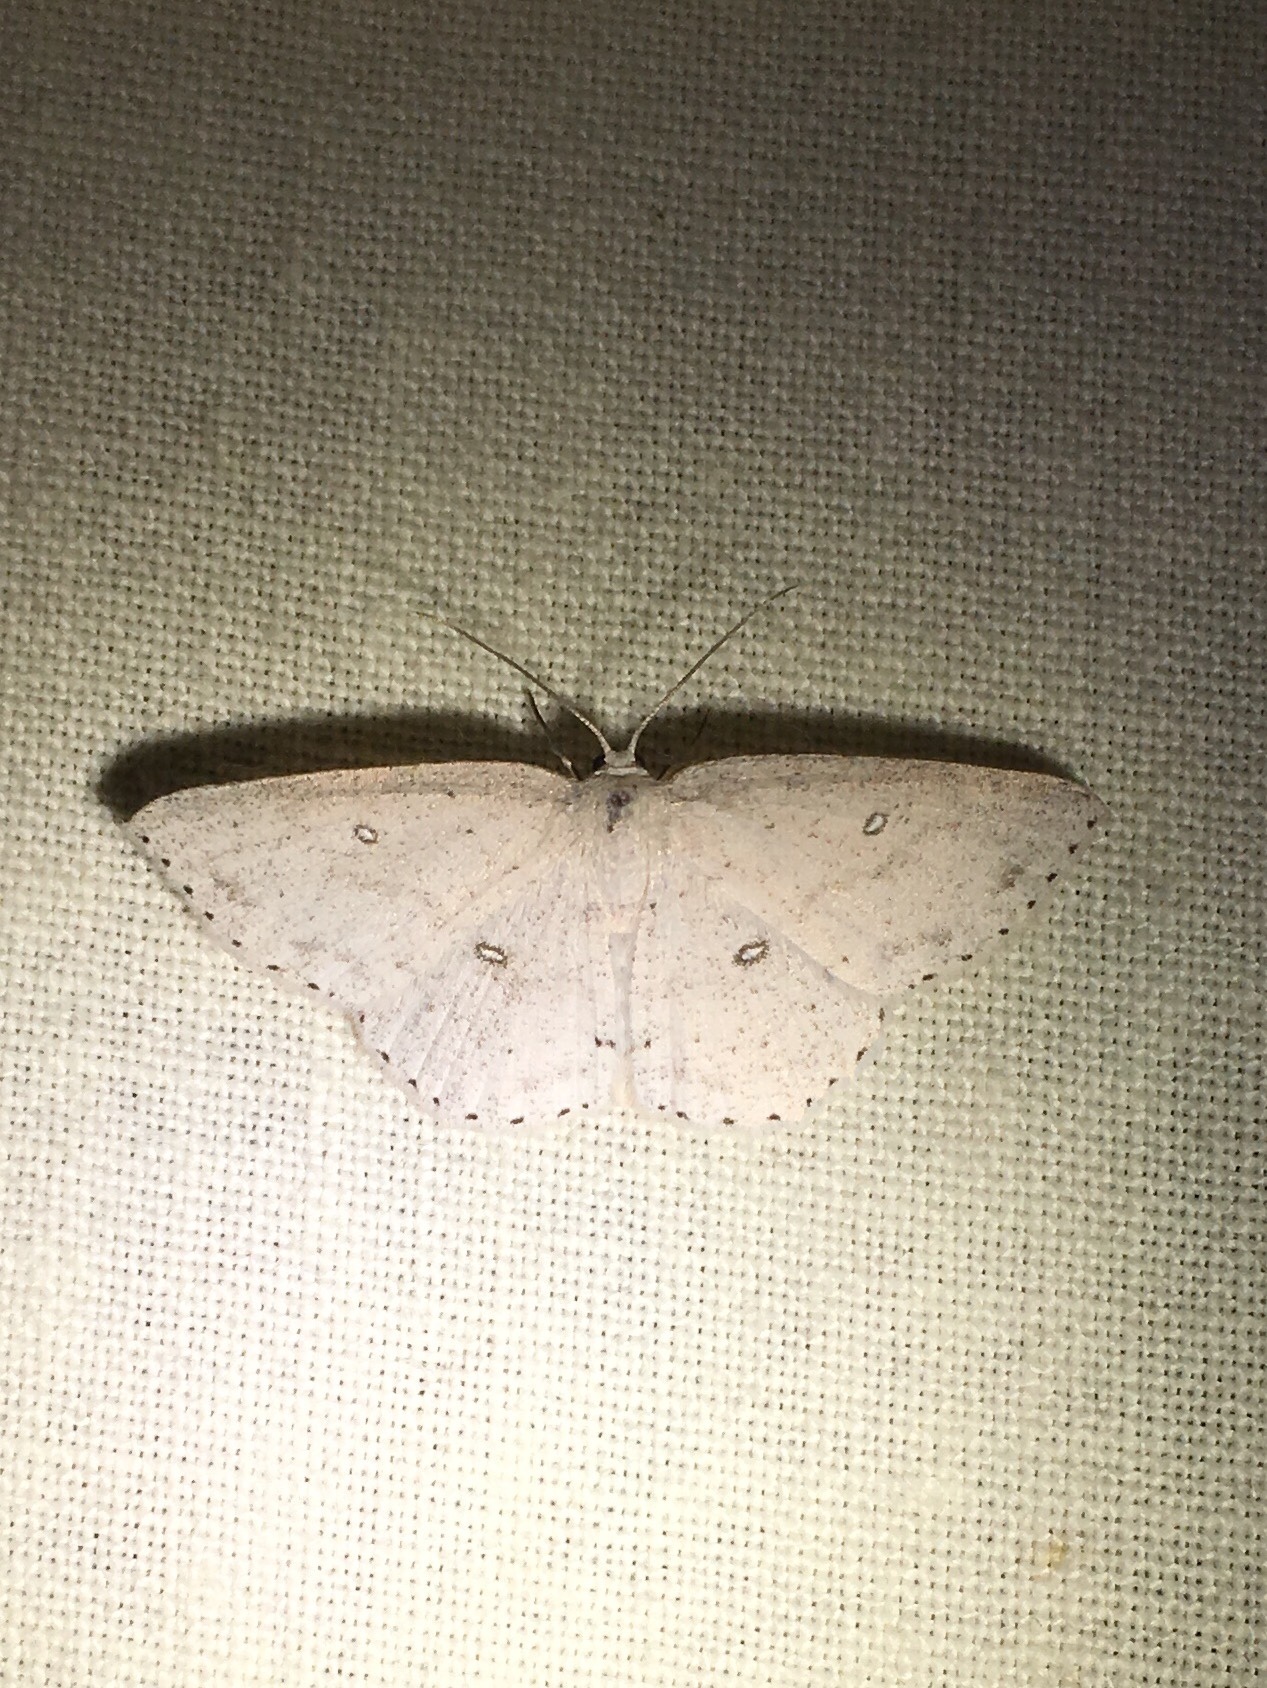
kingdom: Animalia
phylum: Arthropoda
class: Insecta
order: Lepidoptera
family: Geometridae
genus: Cyclophora
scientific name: Cyclophora pendulinaria
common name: Sweet fern geometer
